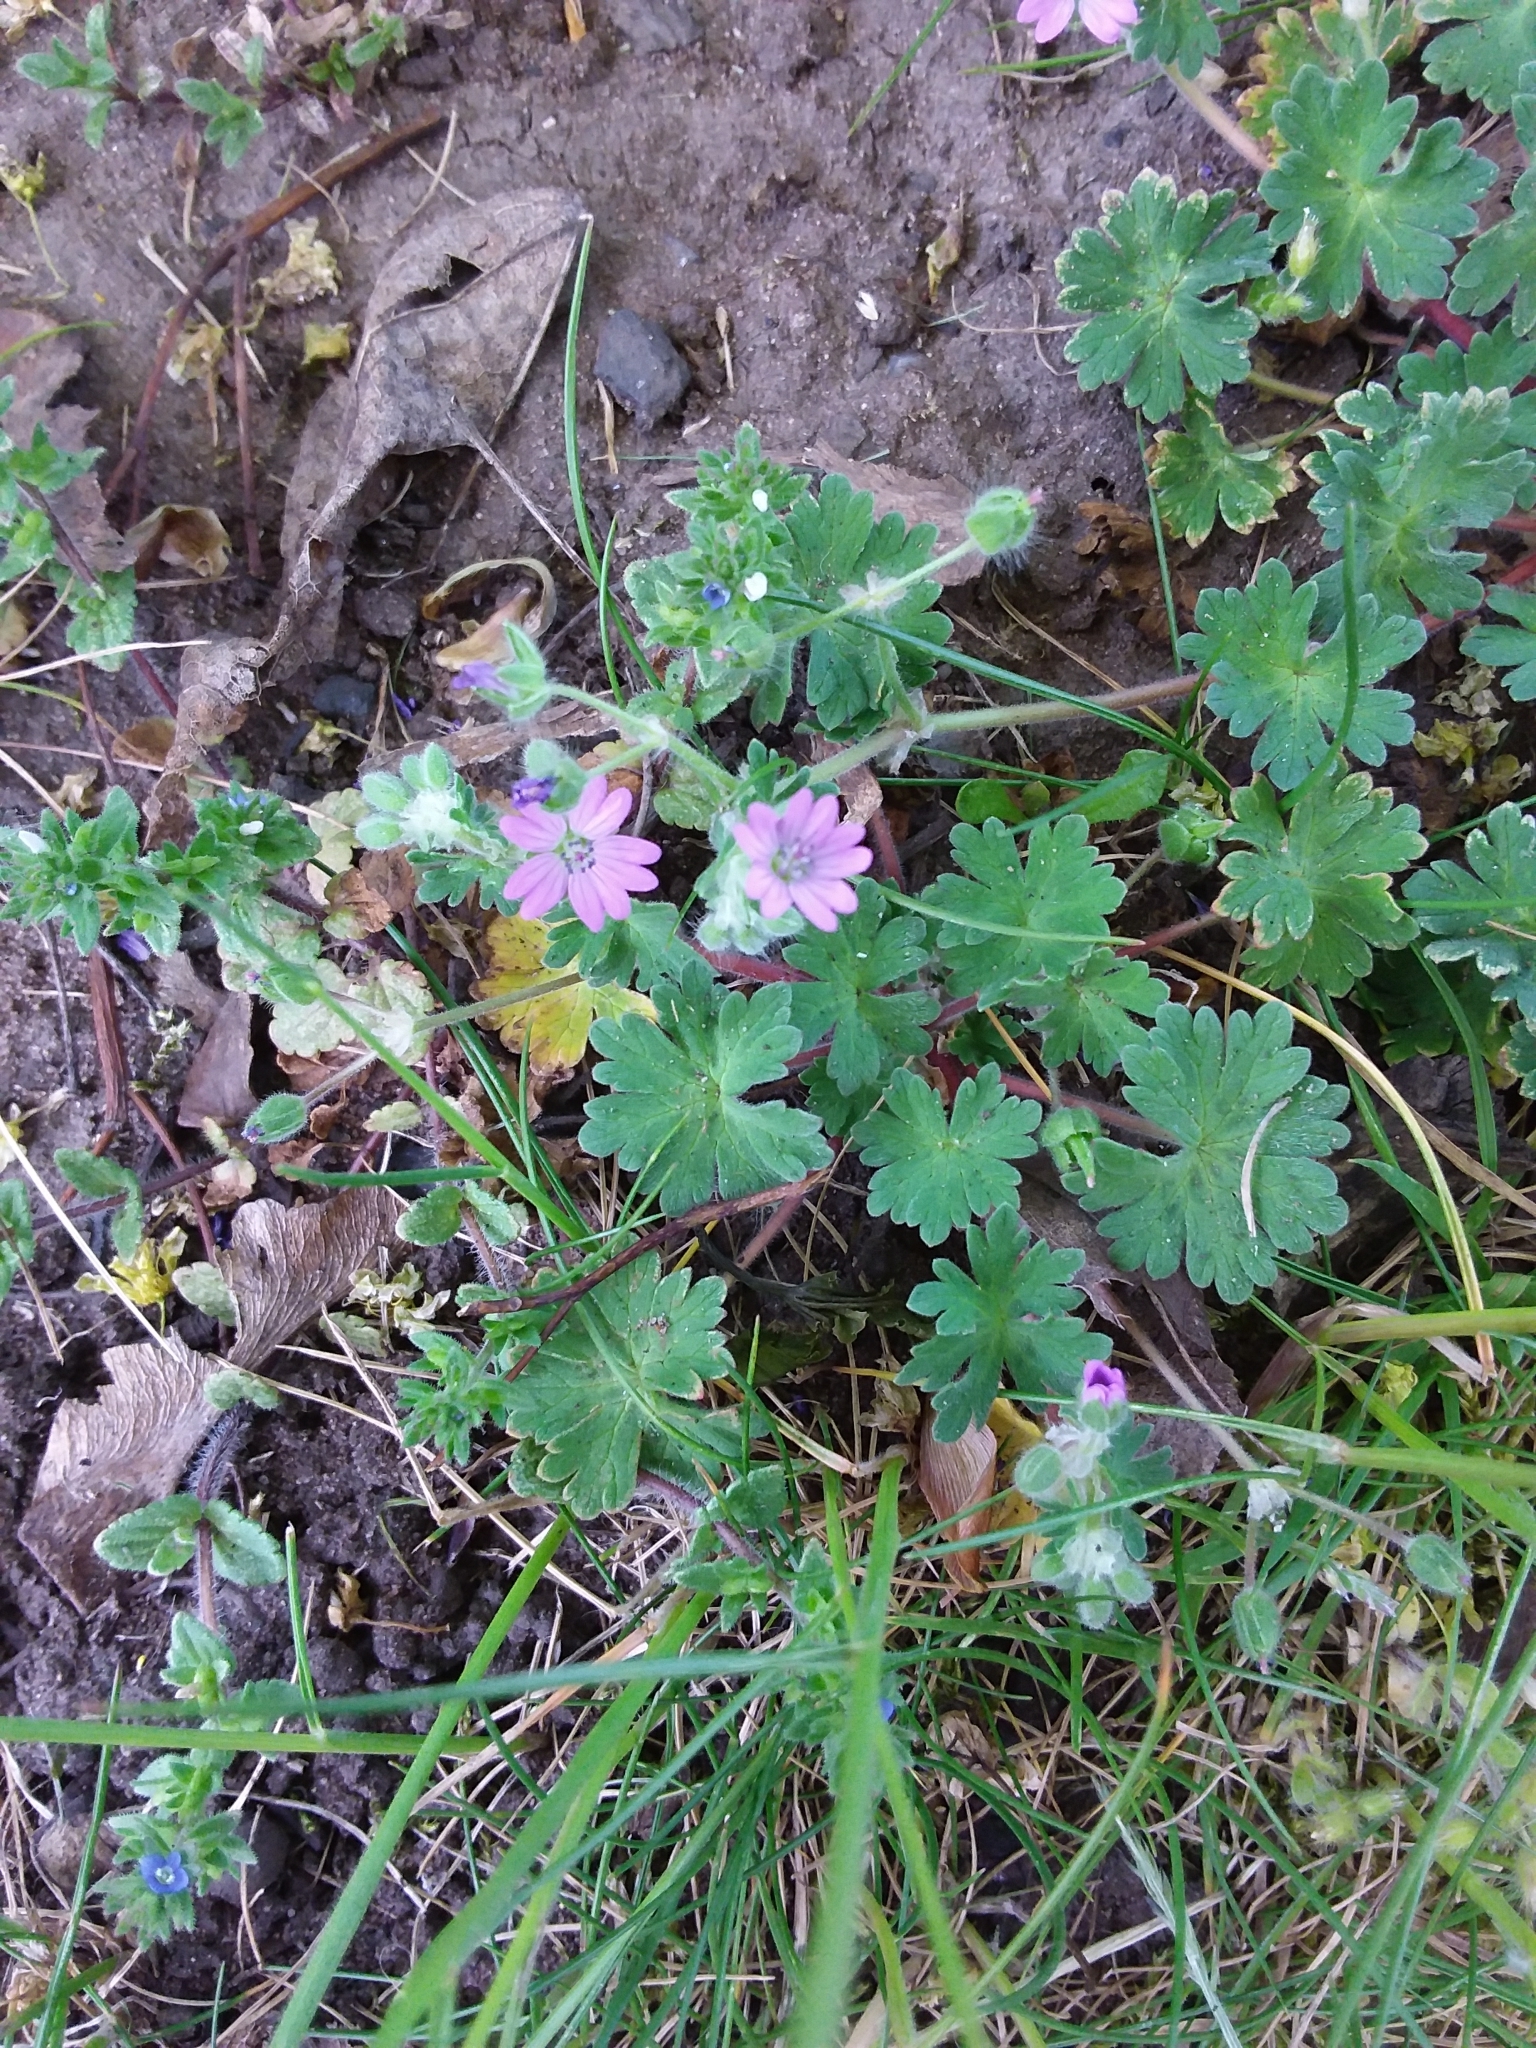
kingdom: Plantae
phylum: Tracheophyta
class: Magnoliopsida
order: Geraniales
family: Geraniaceae
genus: Geranium
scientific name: Geranium molle
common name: Dove's-foot crane's-bill
